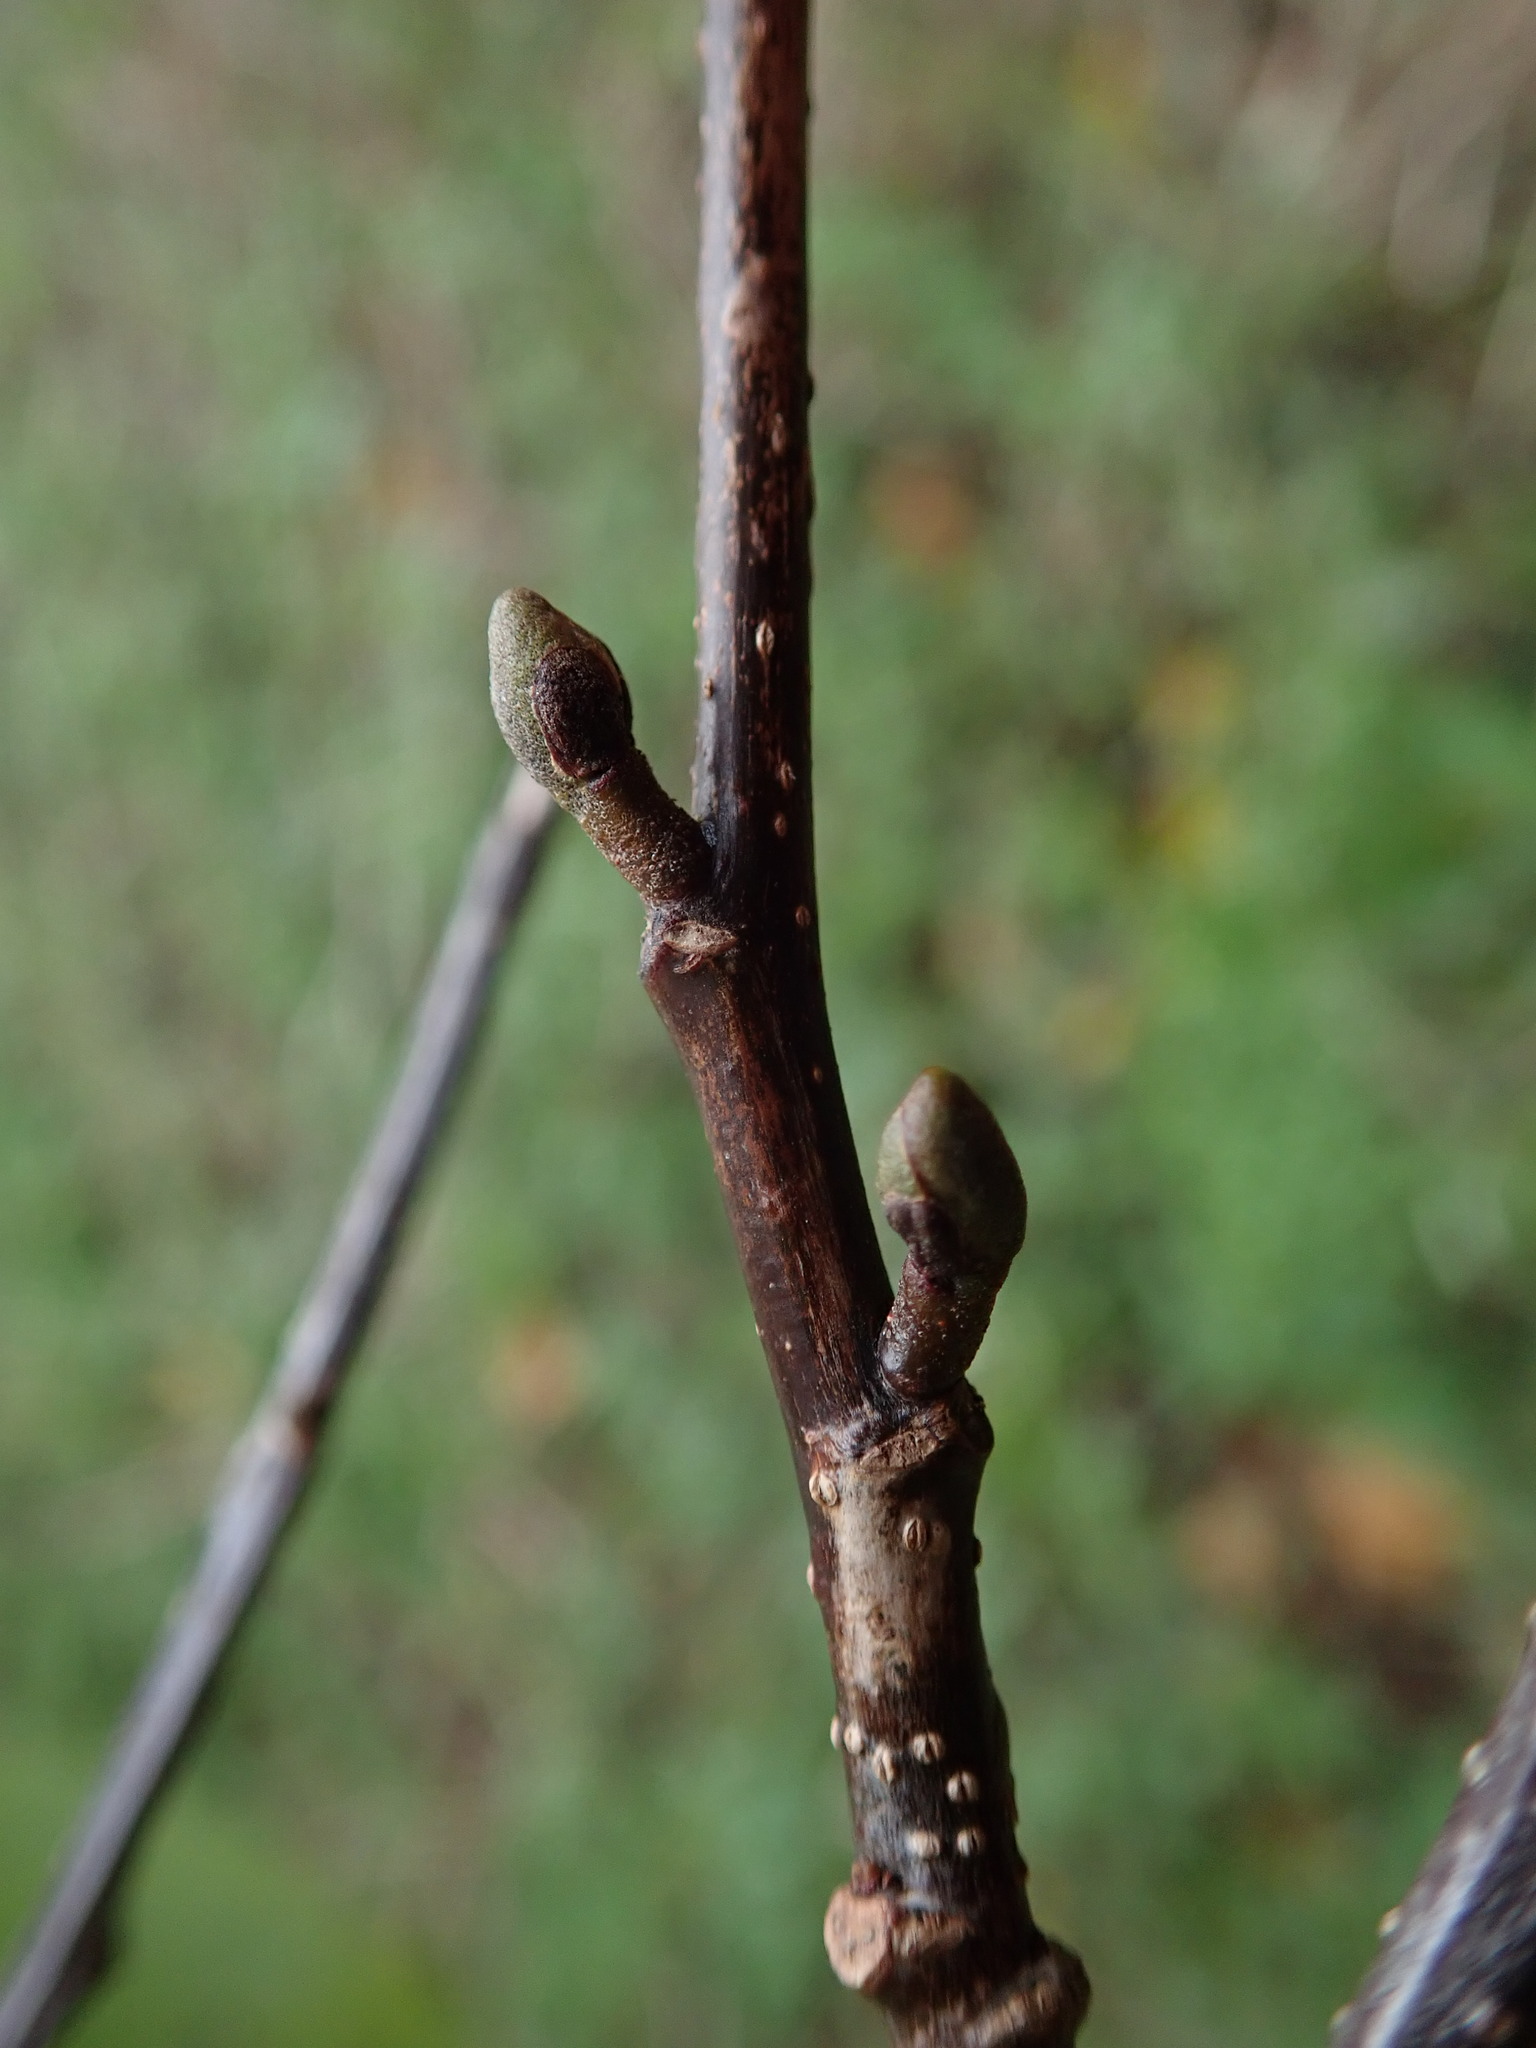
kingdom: Plantae
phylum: Tracheophyta
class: Magnoliopsida
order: Fagales
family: Betulaceae
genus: Alnus
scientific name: Alnus cordata
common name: Italian alder
